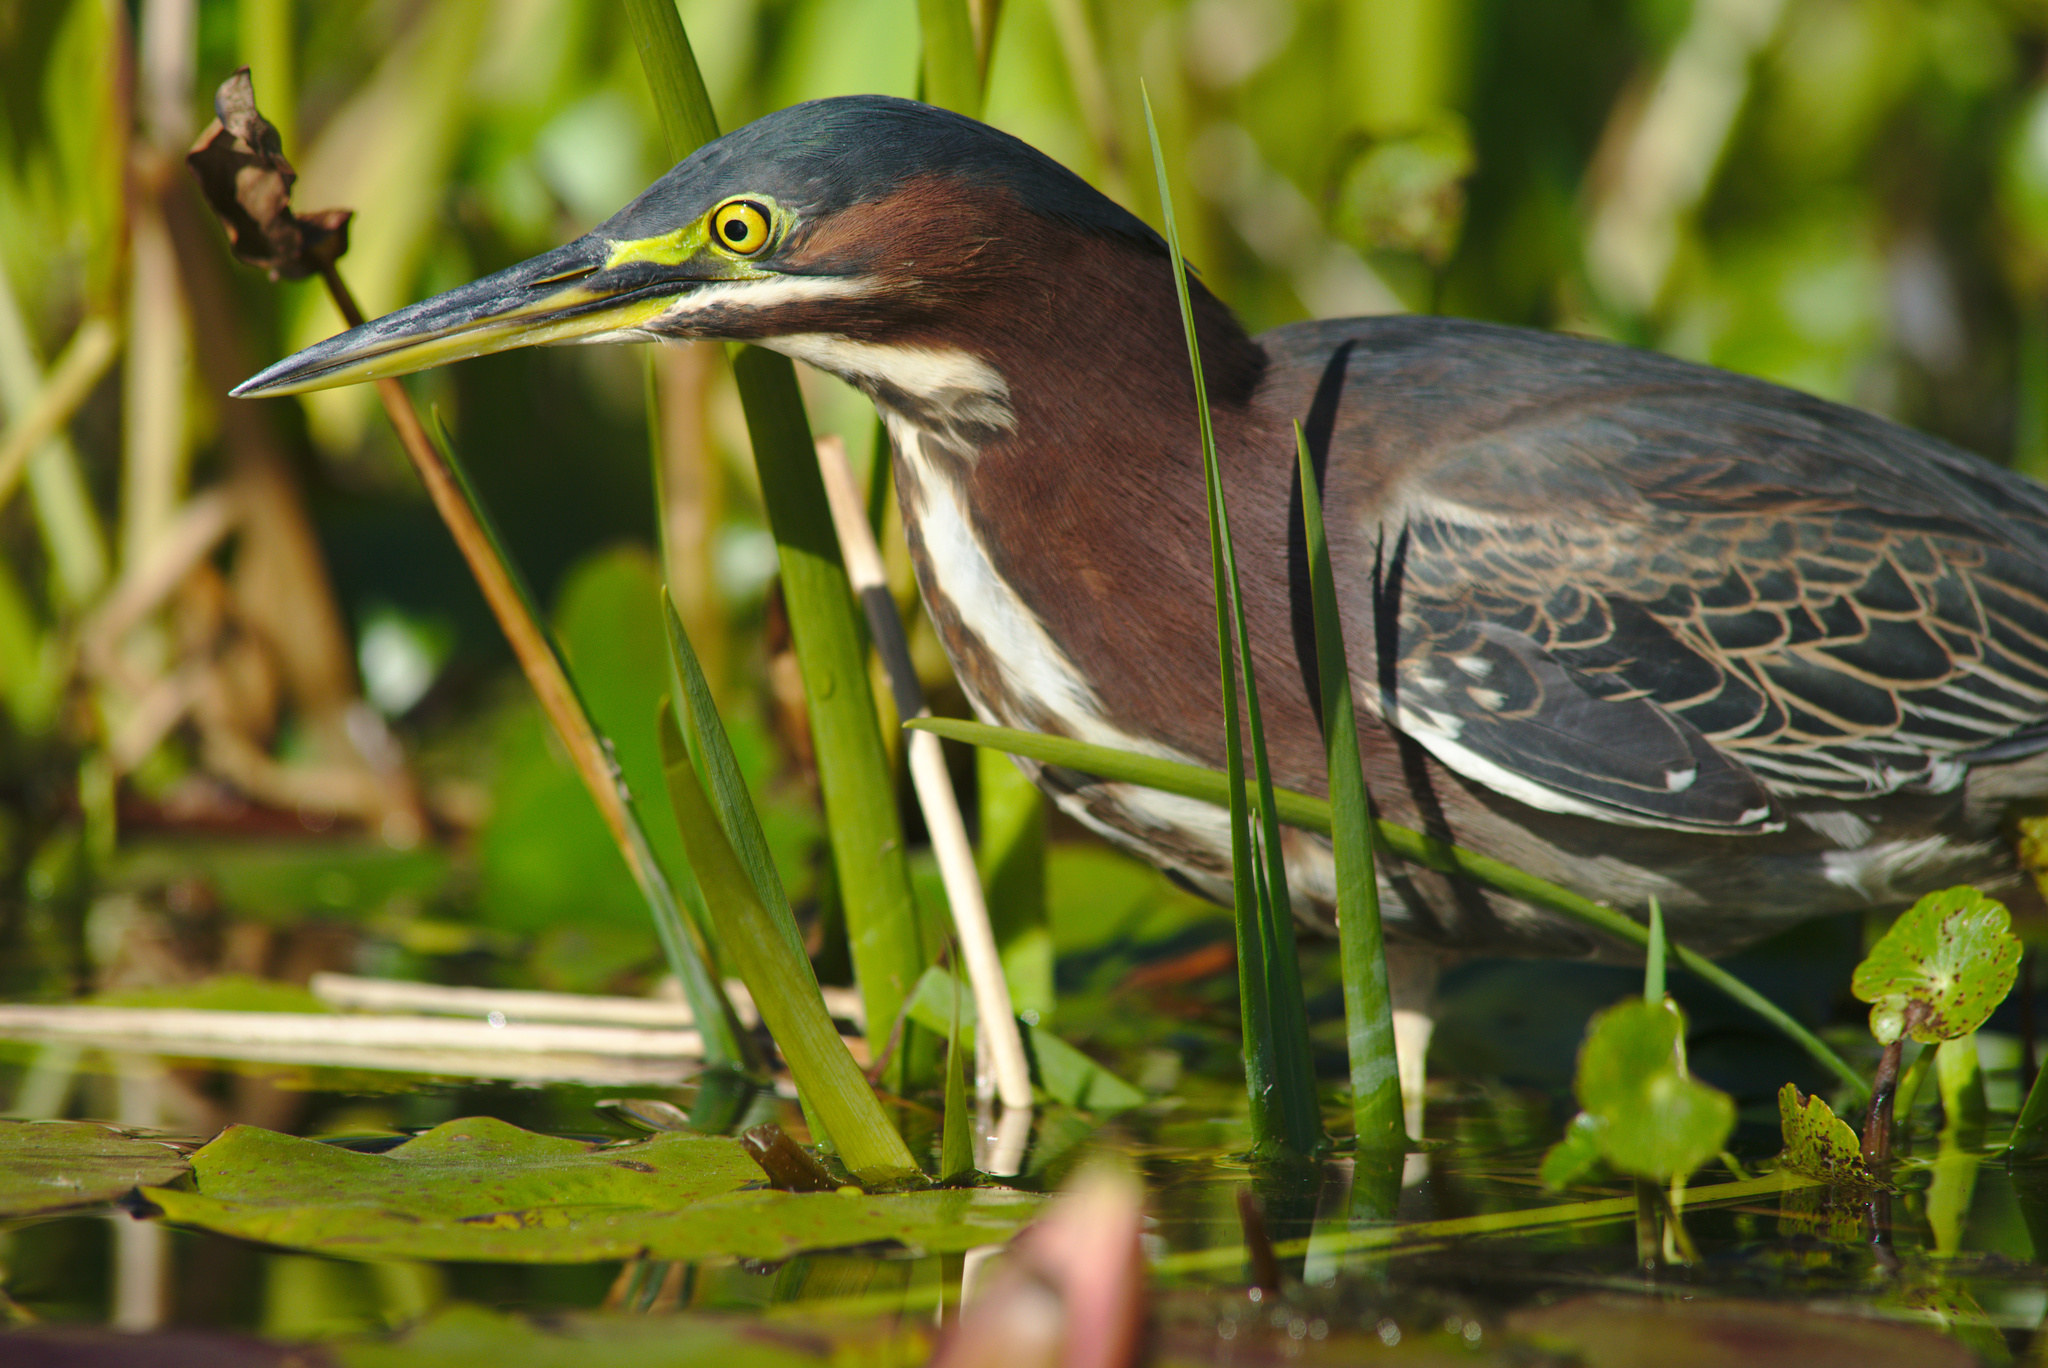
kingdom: Animalia
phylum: Chordata
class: Aves
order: Pelecaniformes
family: Ardeidae
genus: Butorides
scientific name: Butorides virescens
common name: Green heron
